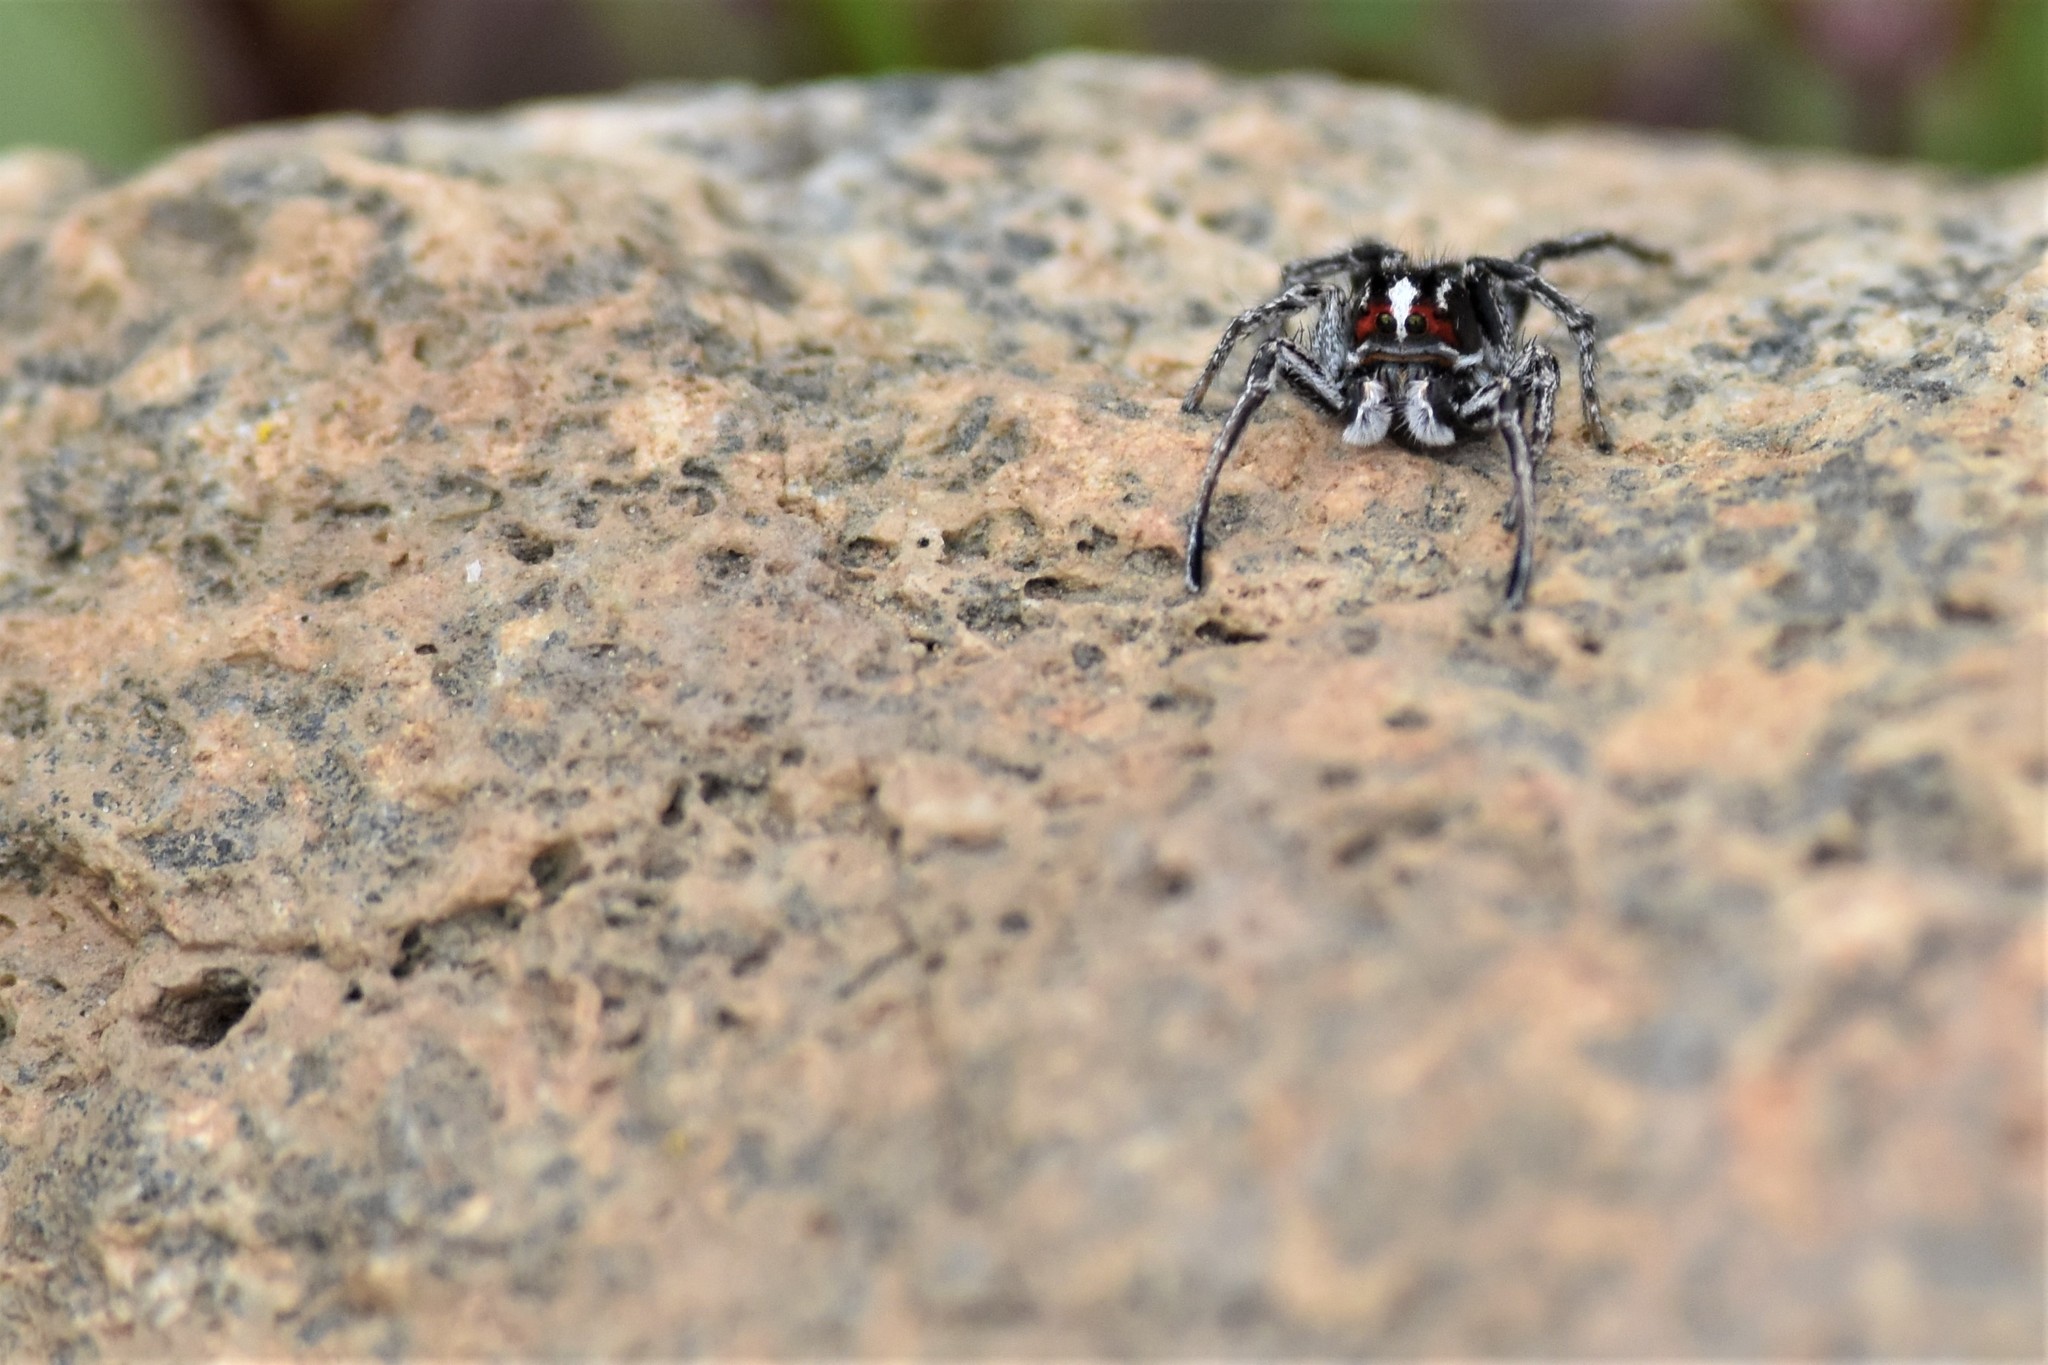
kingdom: Animalia
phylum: Arthropoda
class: Arachnida
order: Araneae
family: Salticidae
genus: Habronattus
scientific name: Habronattus sansoni
